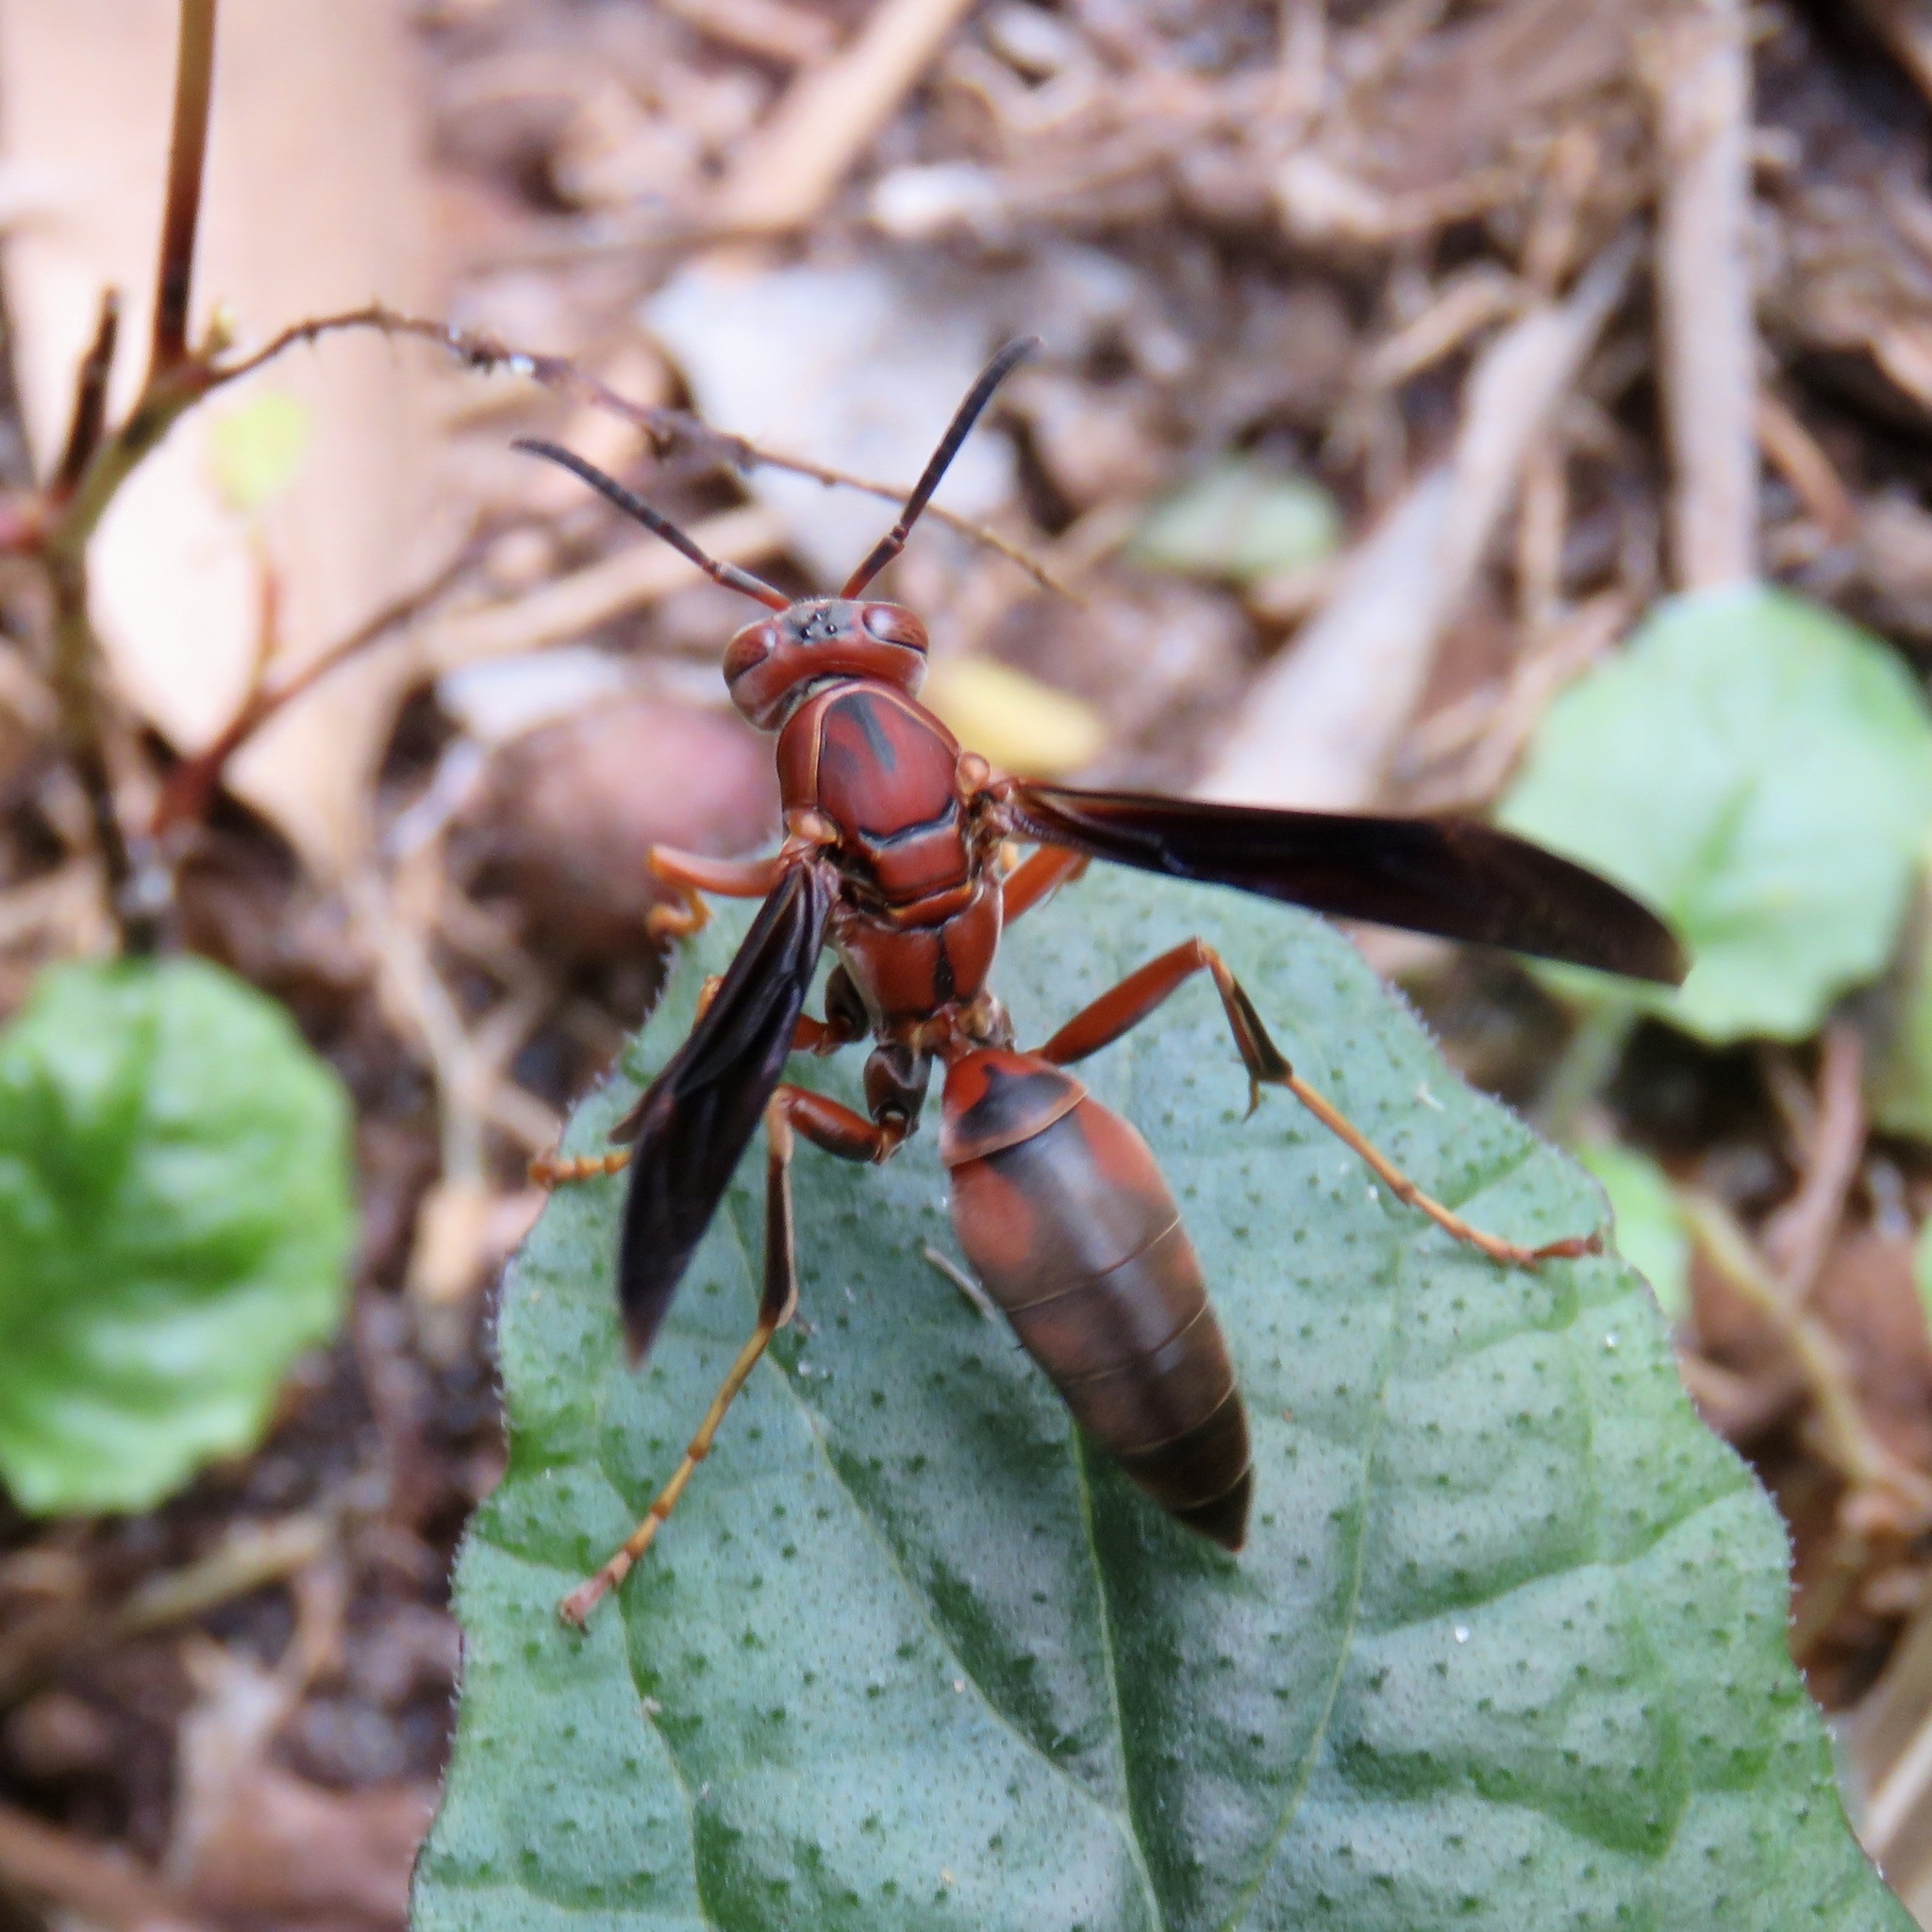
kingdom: Animalia
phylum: Arthropoda
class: Insecta
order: Hymenoptera
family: Eumenidae
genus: Polistes
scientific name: Polistes fuscatus
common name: Dark paper wasp
